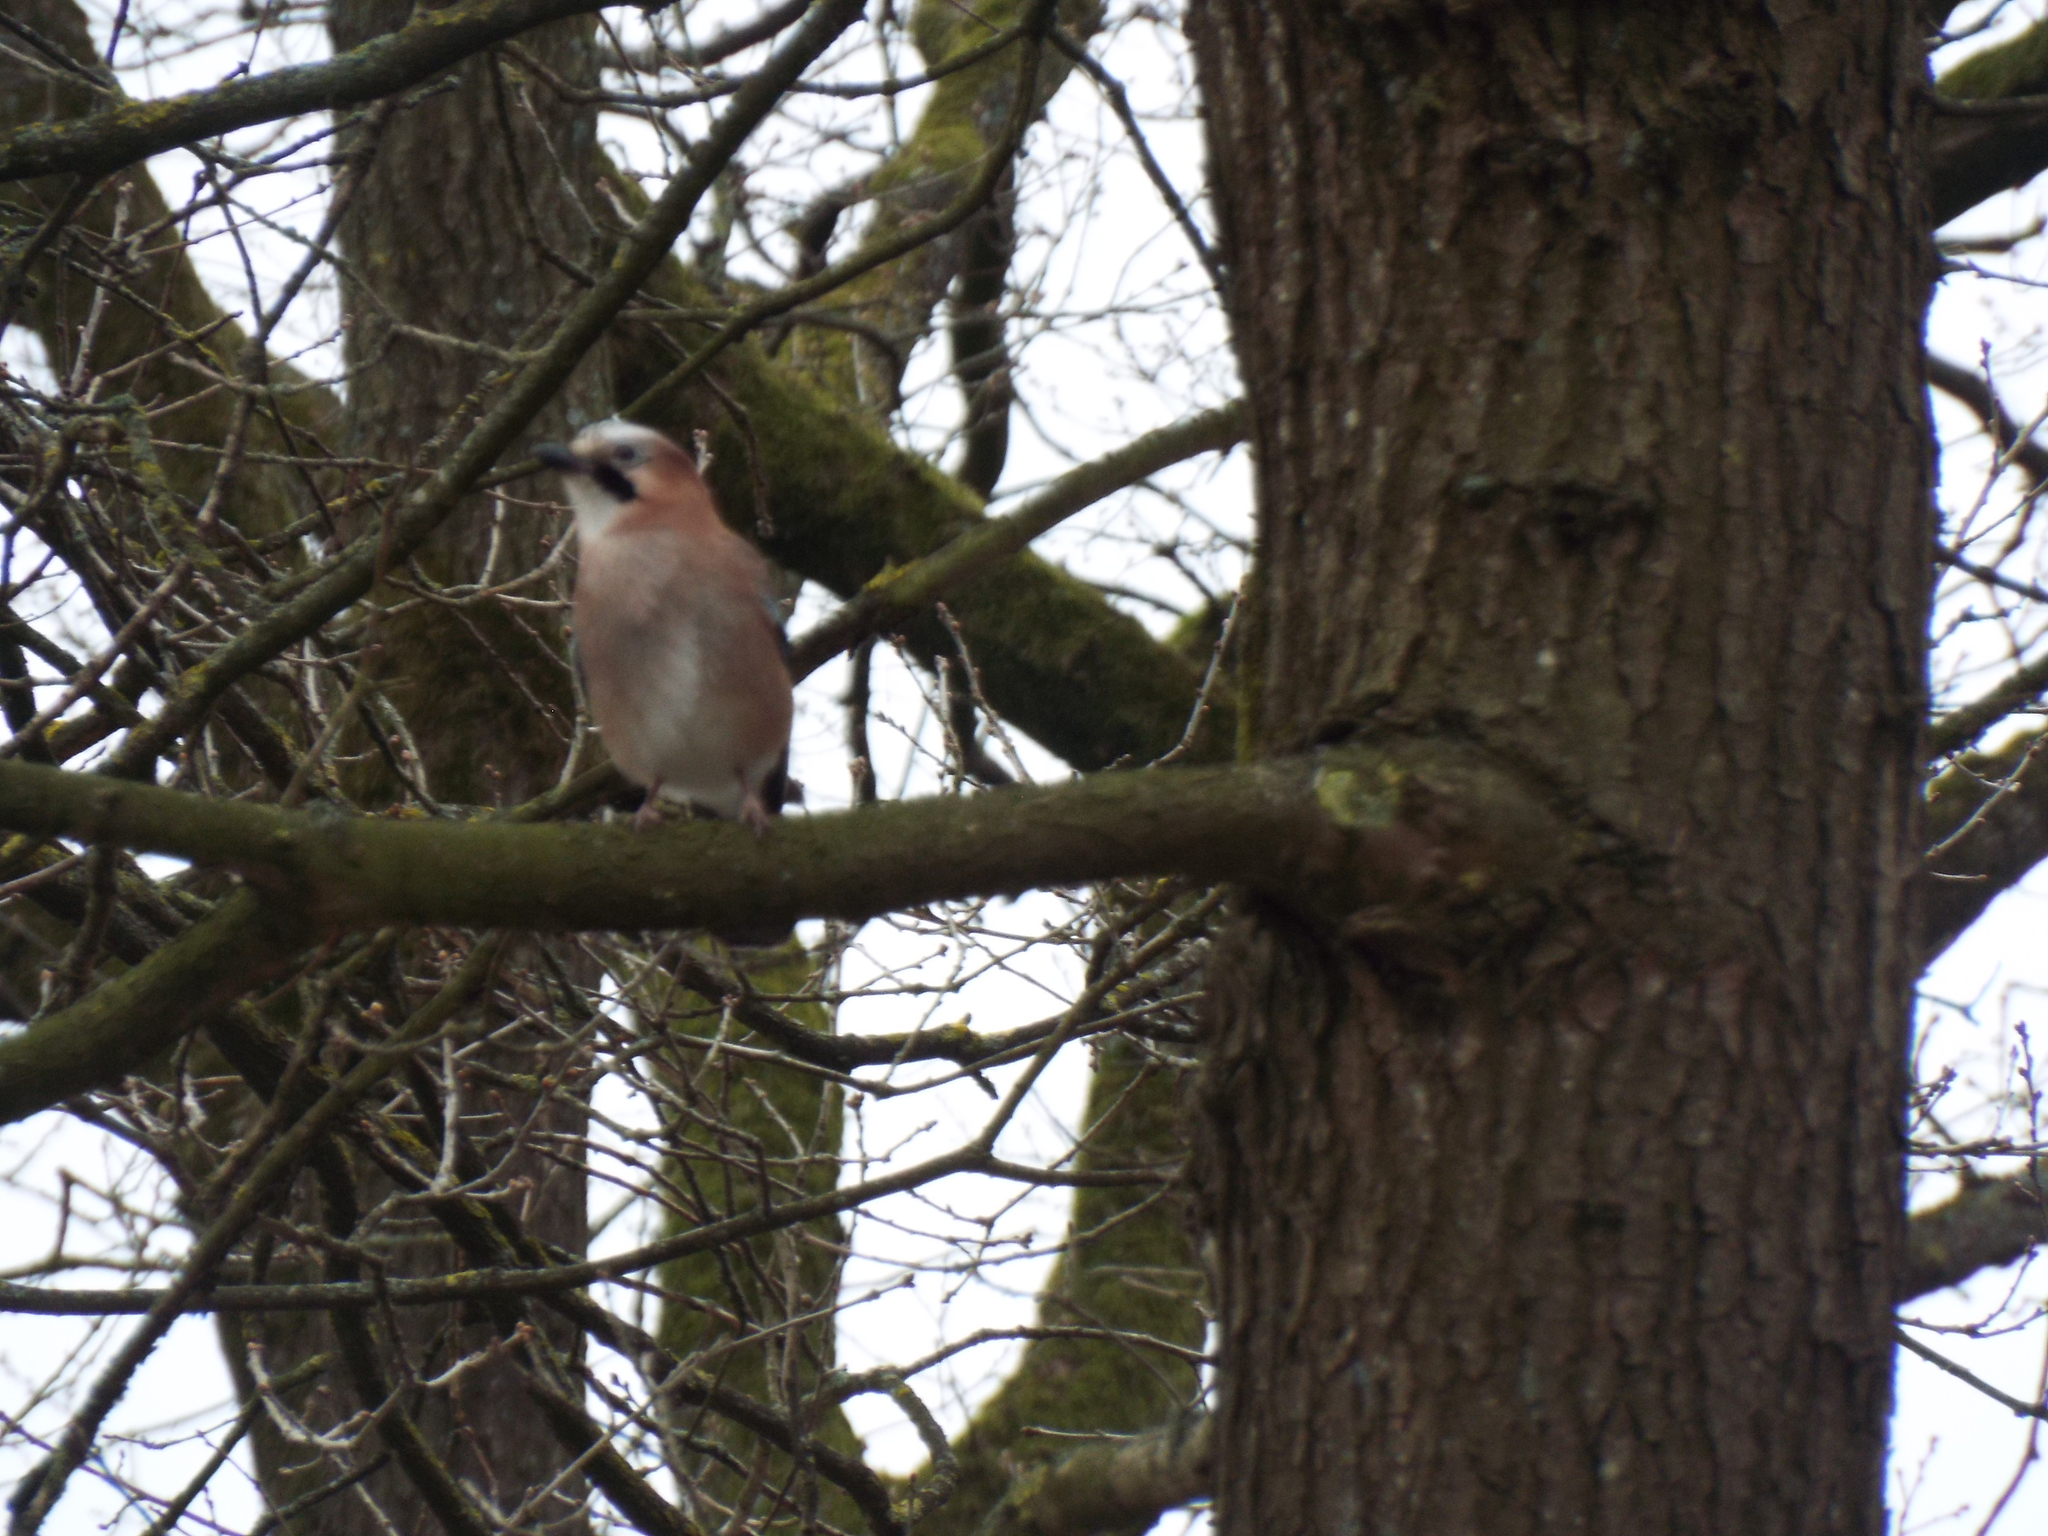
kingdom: Animalia
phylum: Chordata
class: Aves
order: Passeriformes
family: Corvidae
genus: Garrulus
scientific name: Garrulus glandarius
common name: Eurasian jay
